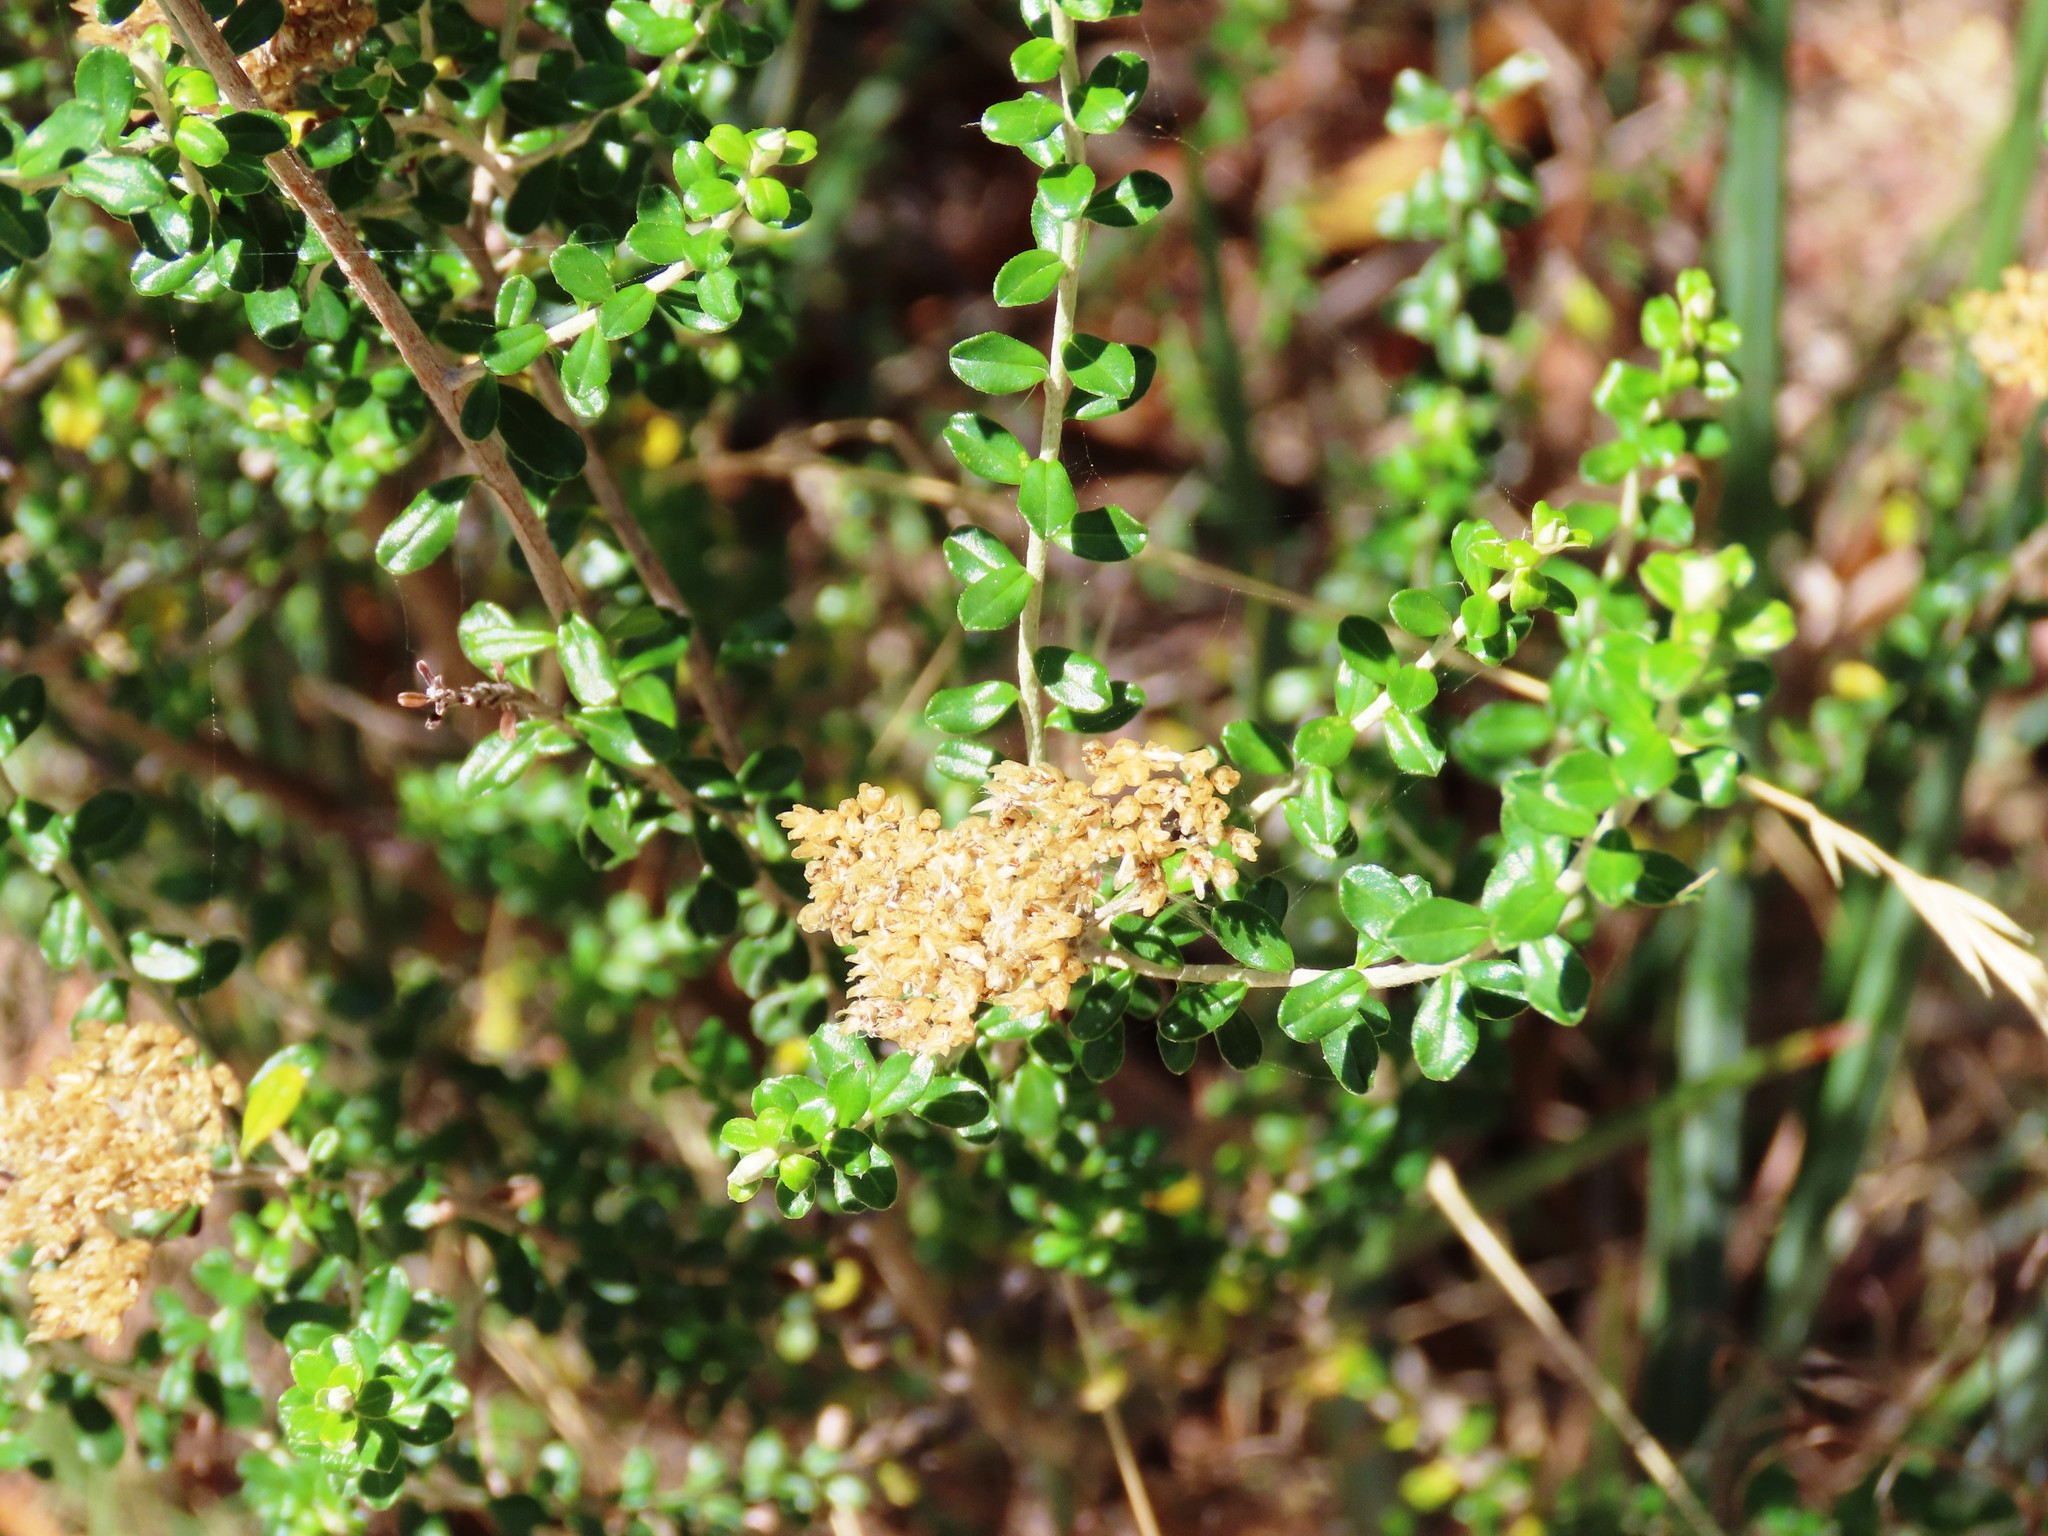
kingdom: Plantae
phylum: Tracheophyta
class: Magnoliopsida
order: Asterales
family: Asteraceae
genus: Ozothamnus
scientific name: Ozothamnus obcordatus
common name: Grey everlasting
